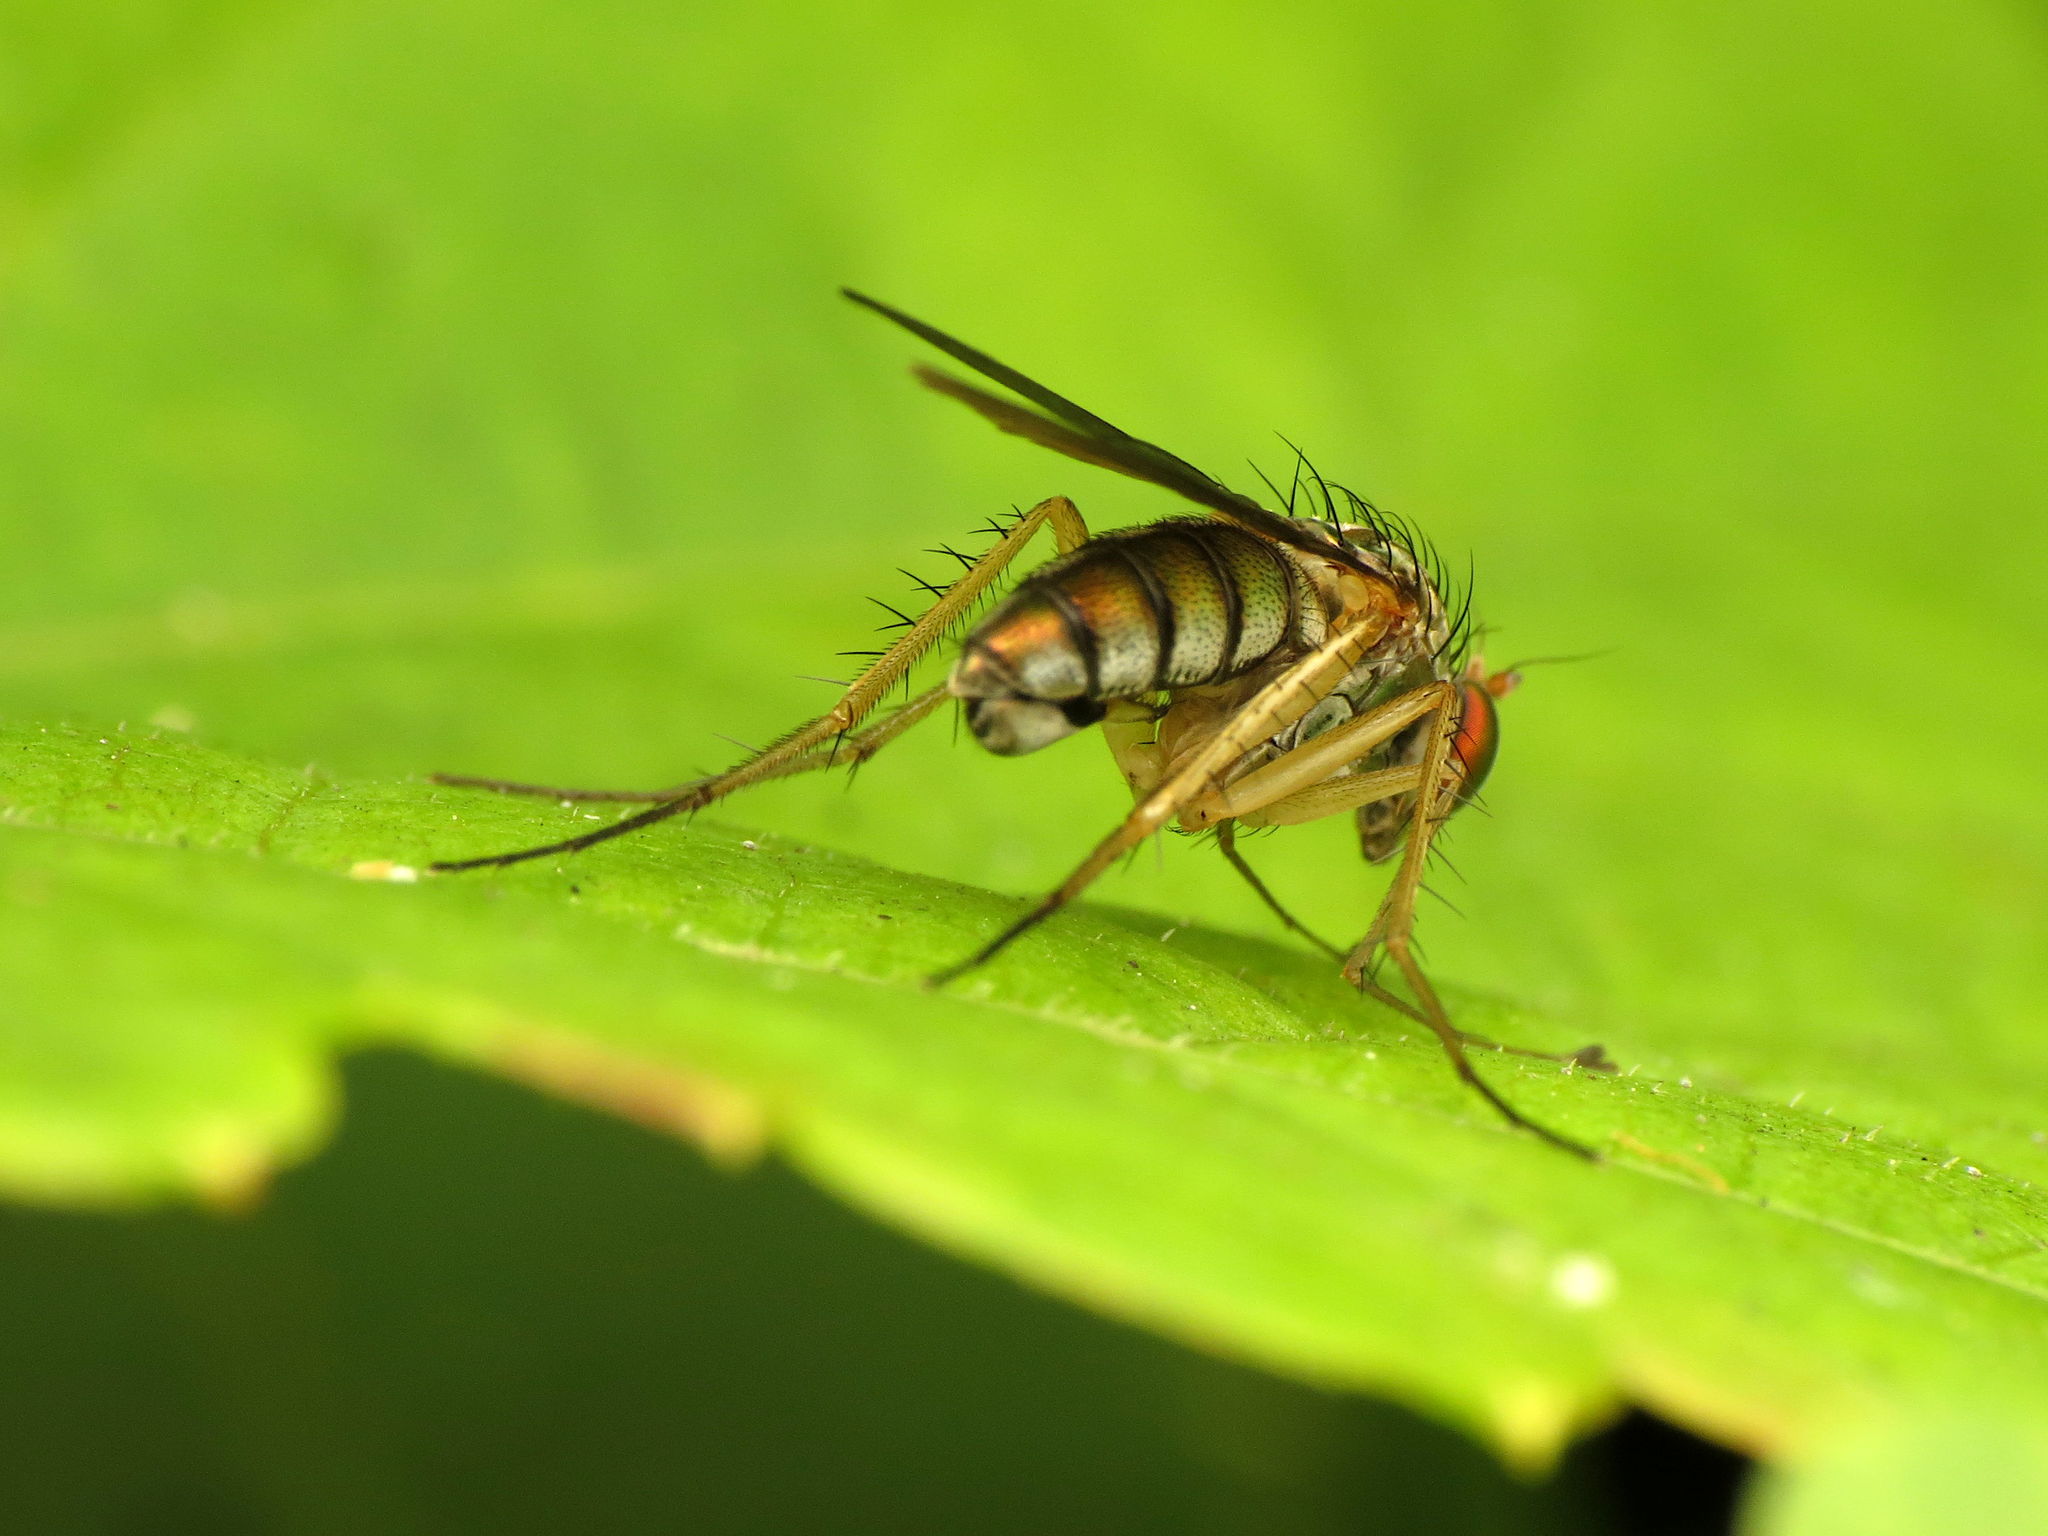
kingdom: Animalia
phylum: Arthropoda
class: Insecta
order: Diptera
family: Dolichopodidae
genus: Dolichopus
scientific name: Dolichopus longipennis
